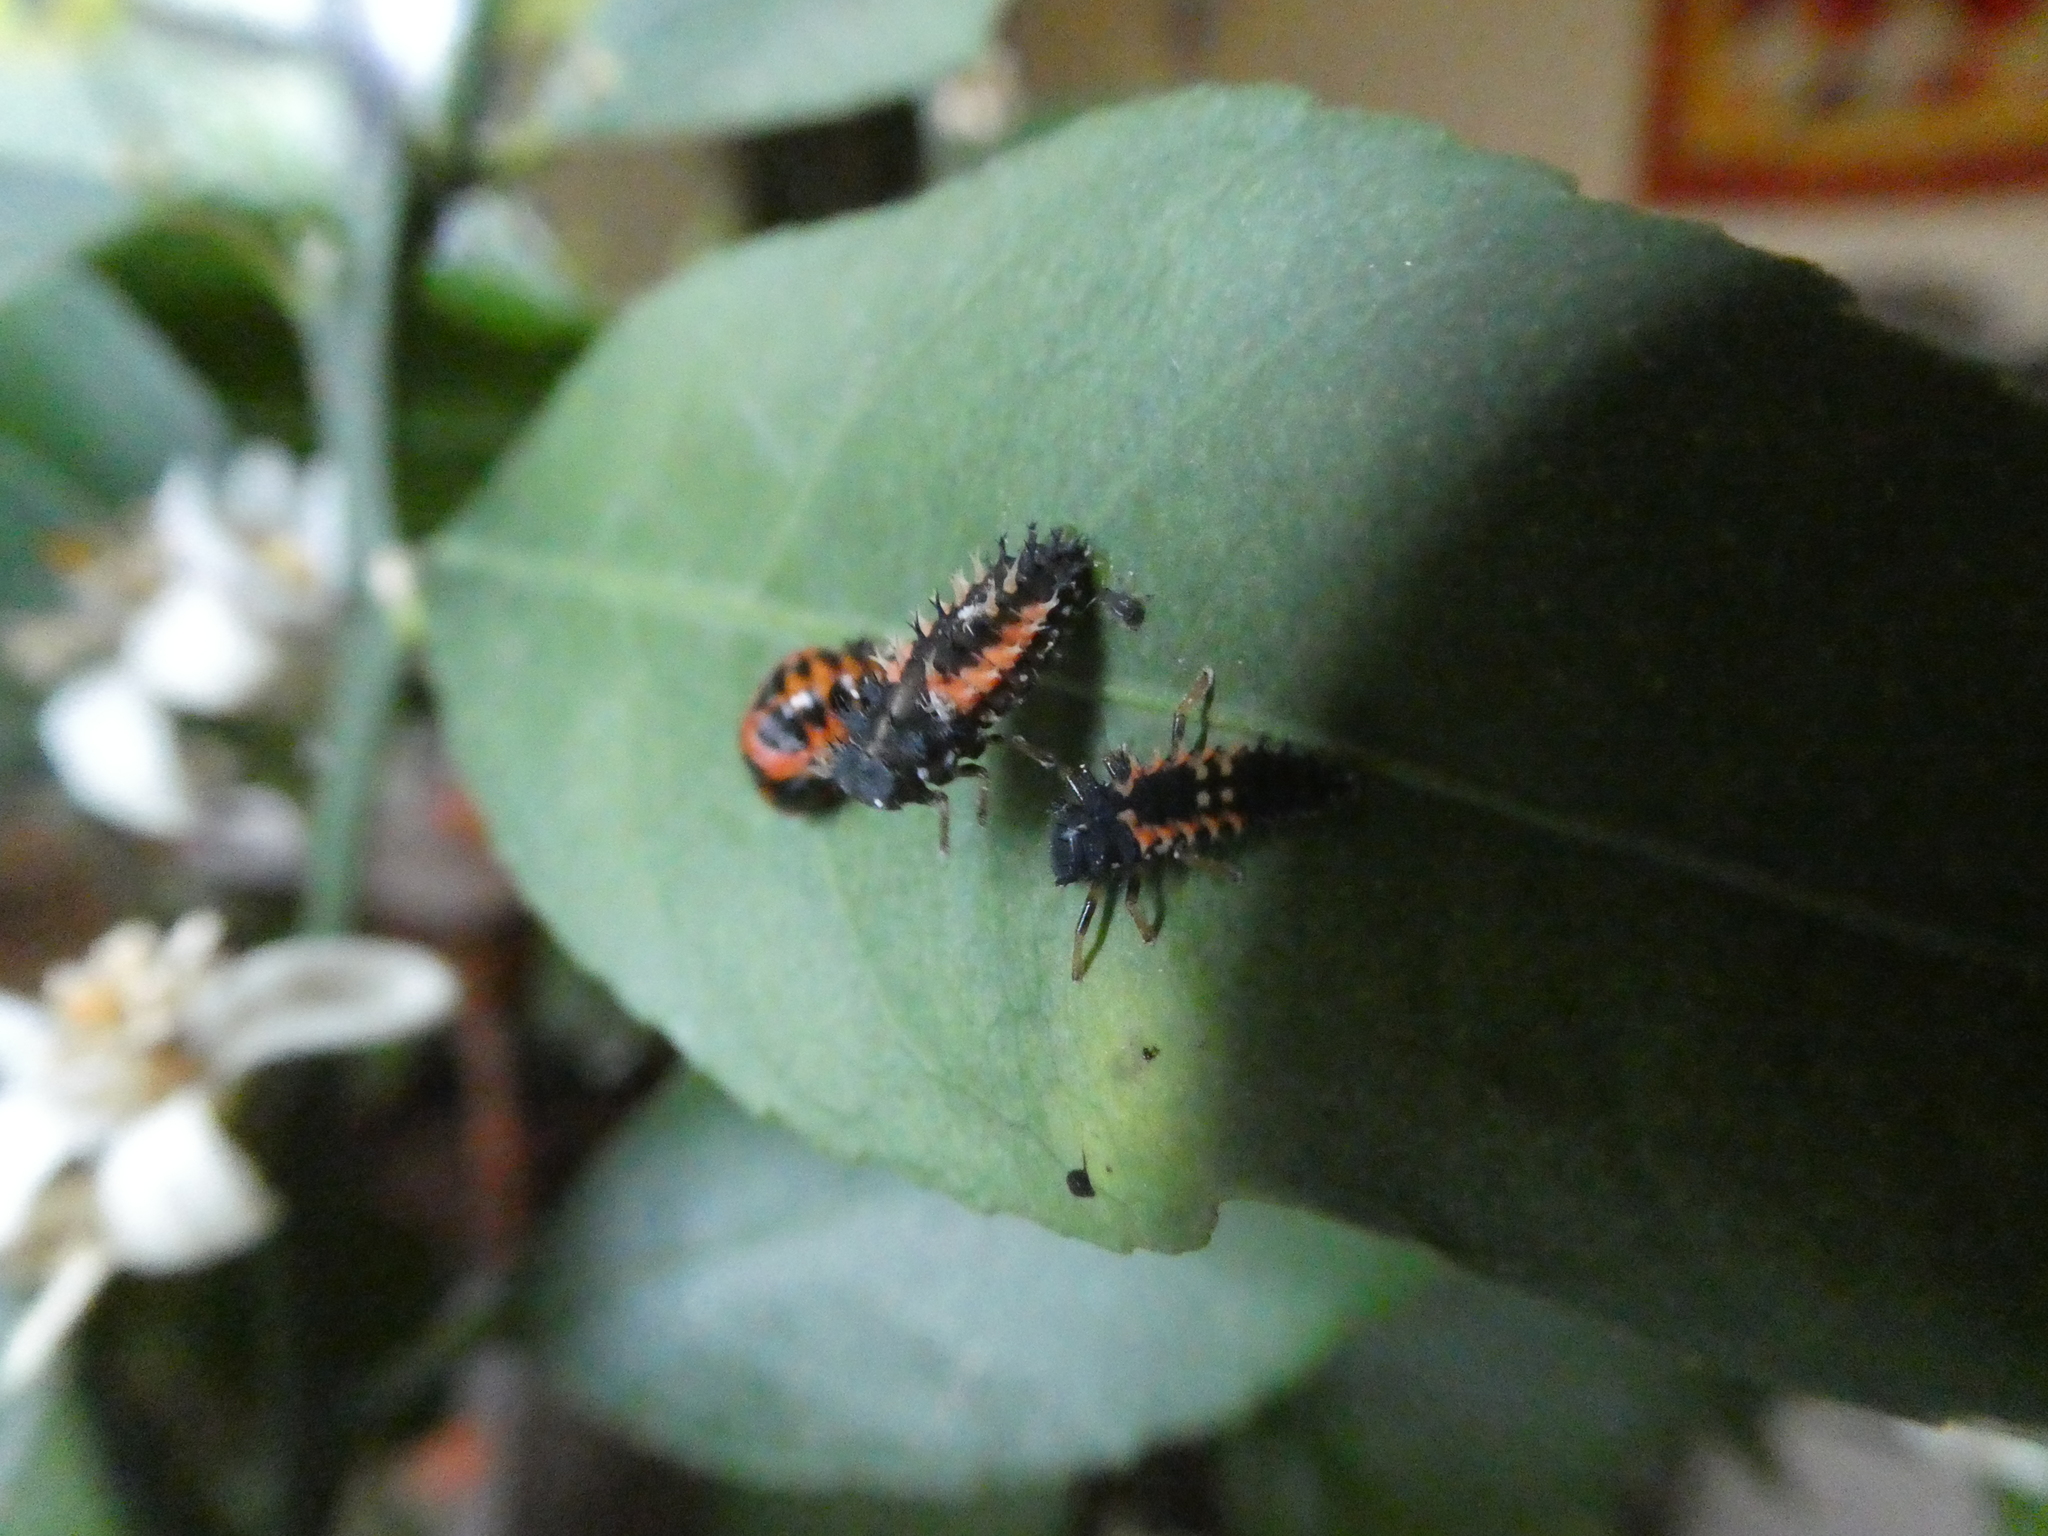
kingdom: Animalia
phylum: Arthropoda
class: Insecta
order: Coleoptera
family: Coccinellidae
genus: Harmonia
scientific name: Harmonia axyridis
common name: Harlequin ladybird
